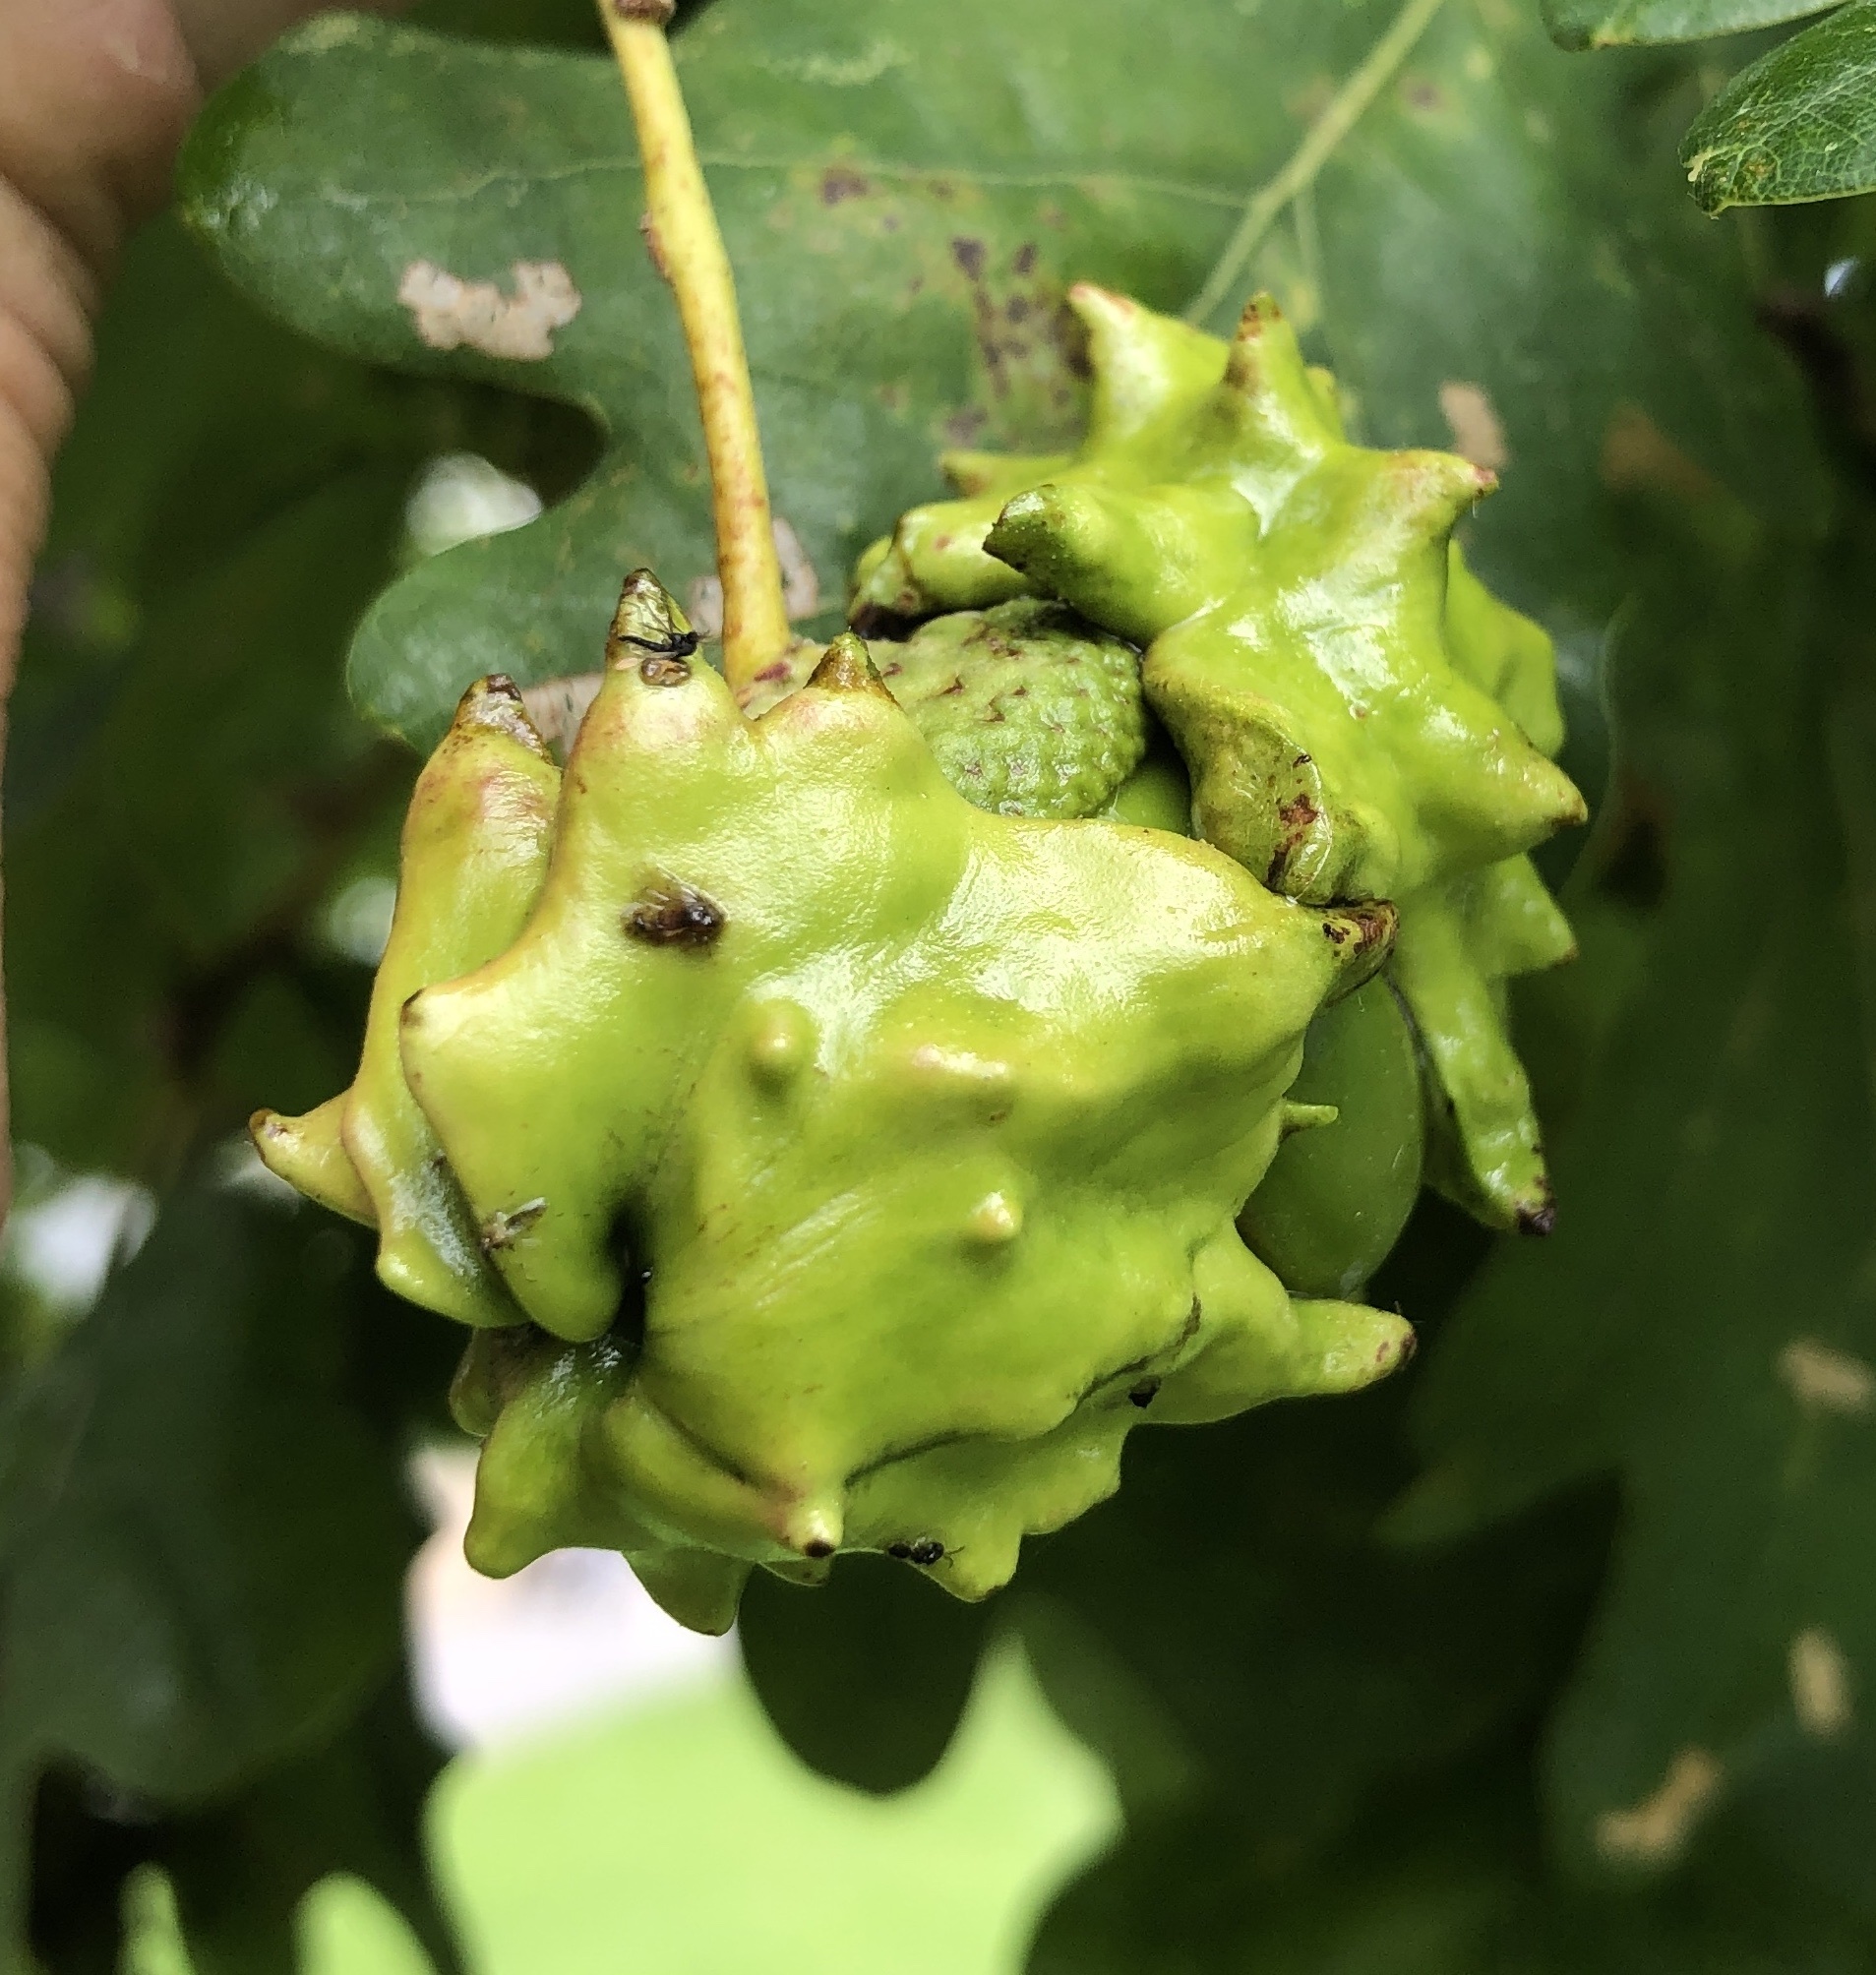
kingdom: Animalia
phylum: Arthropoda
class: Insecta
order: Hymenoptera
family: Cynipidae
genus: Andricus
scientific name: Andricus quercuscalicis
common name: Knopper gall
